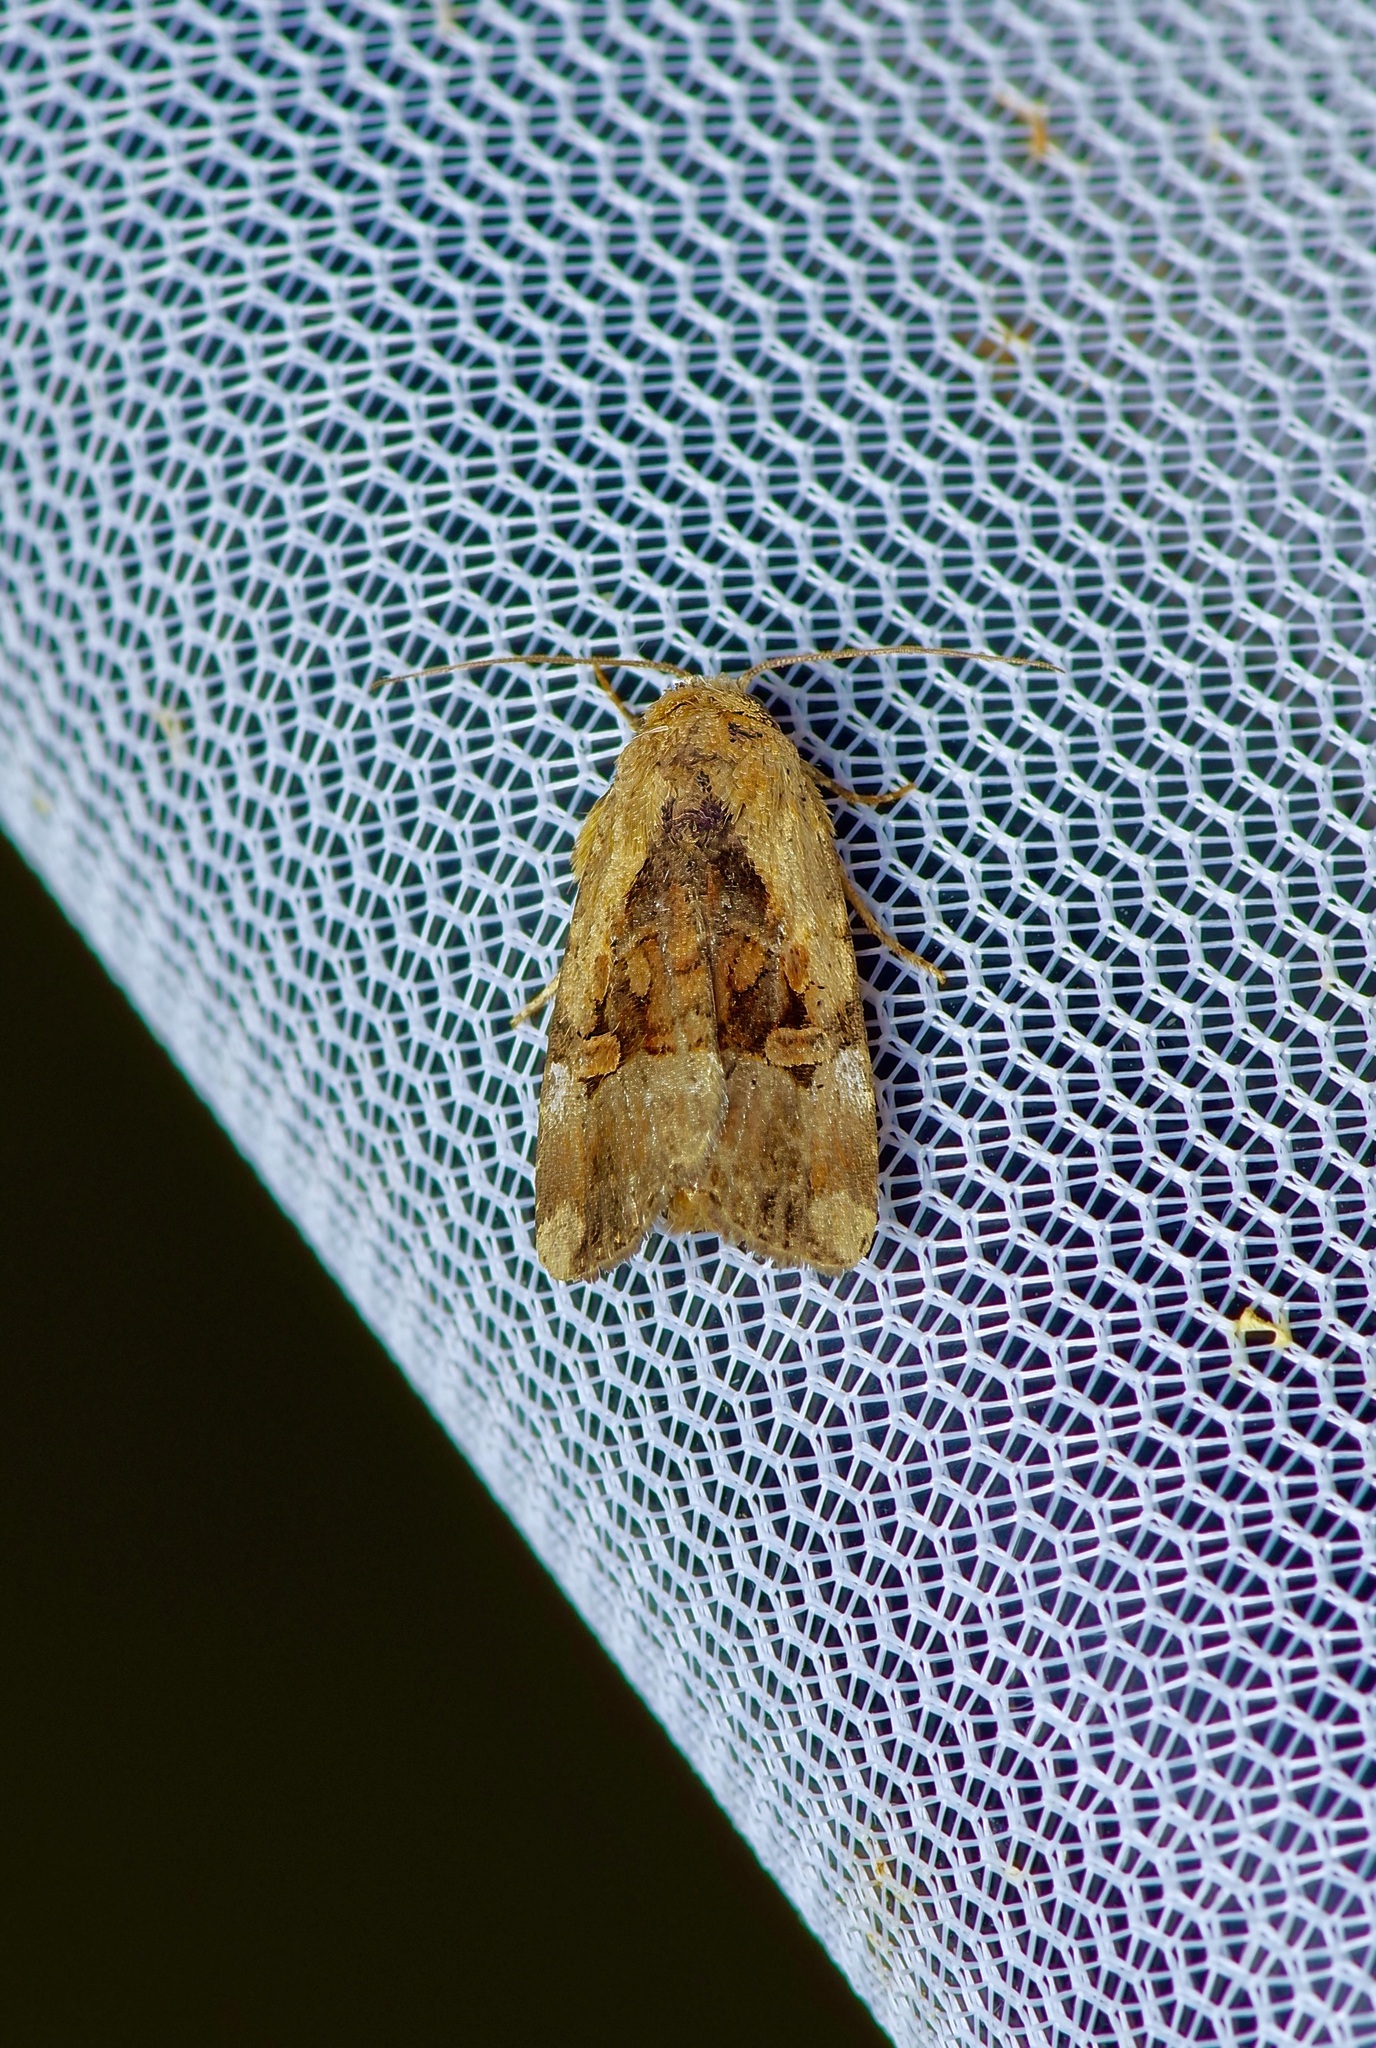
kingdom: Animalia
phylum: Arthropoda
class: Insecta
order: Lepidoptera
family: Noctuidae
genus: Elaphria
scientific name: Elaphria chalcedonia
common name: Chalcedony midget
